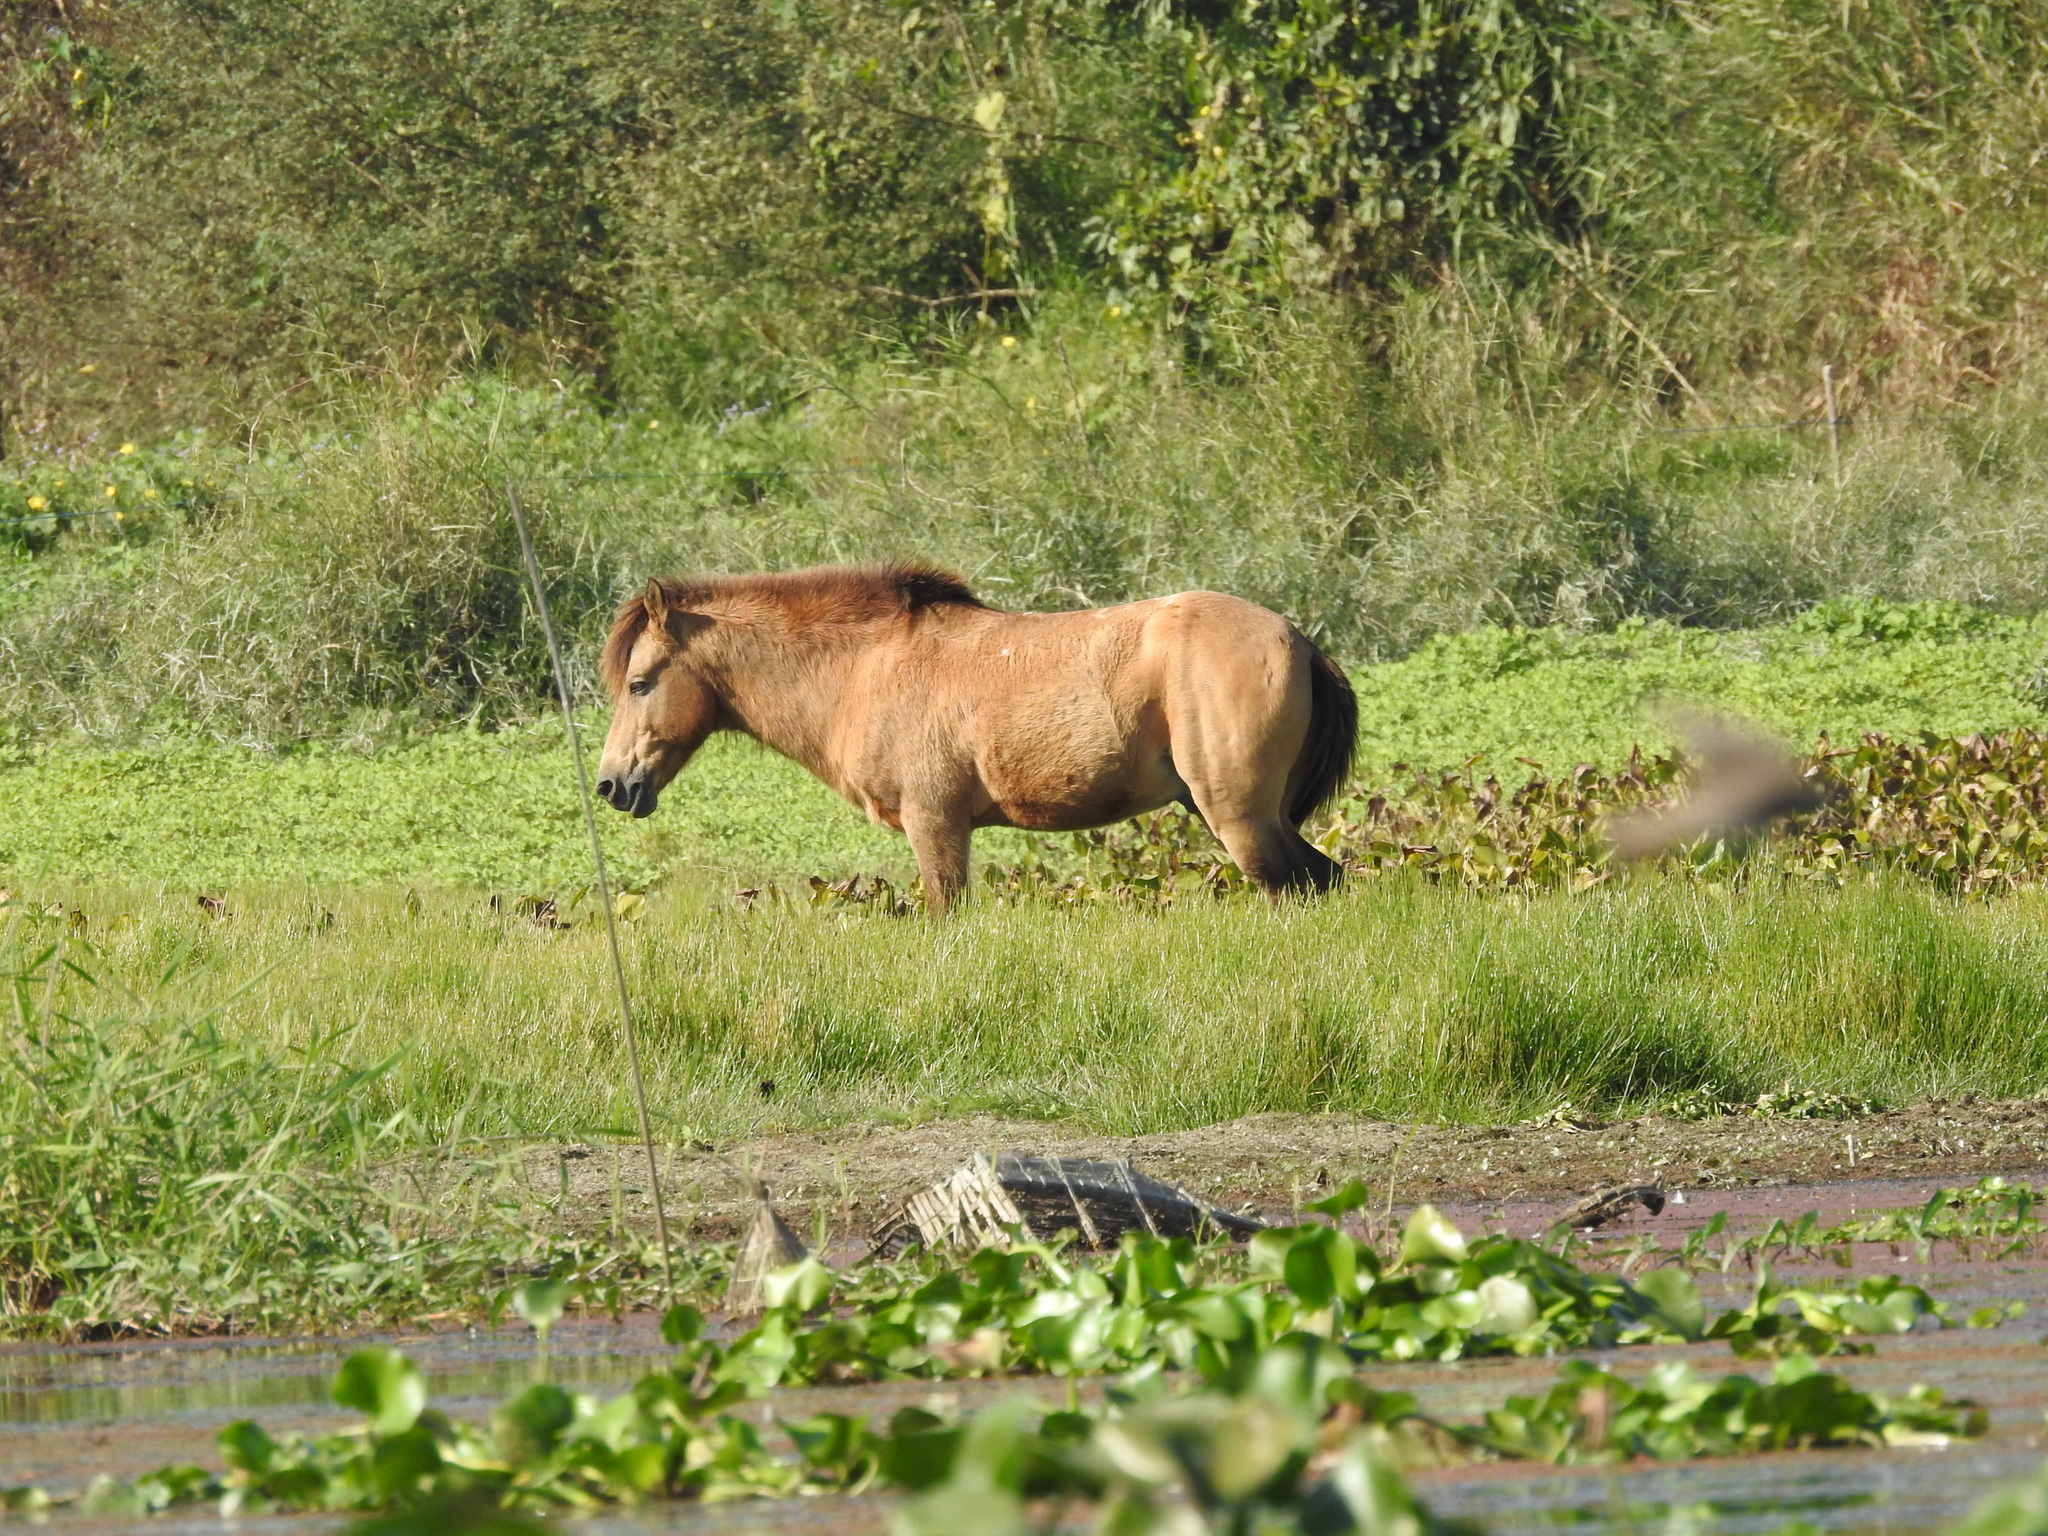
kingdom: Animalia
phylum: Chordata
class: Mammalia
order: Perissodactyla
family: Equidae
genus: Equus
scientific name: Equus caballus
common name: Horse
